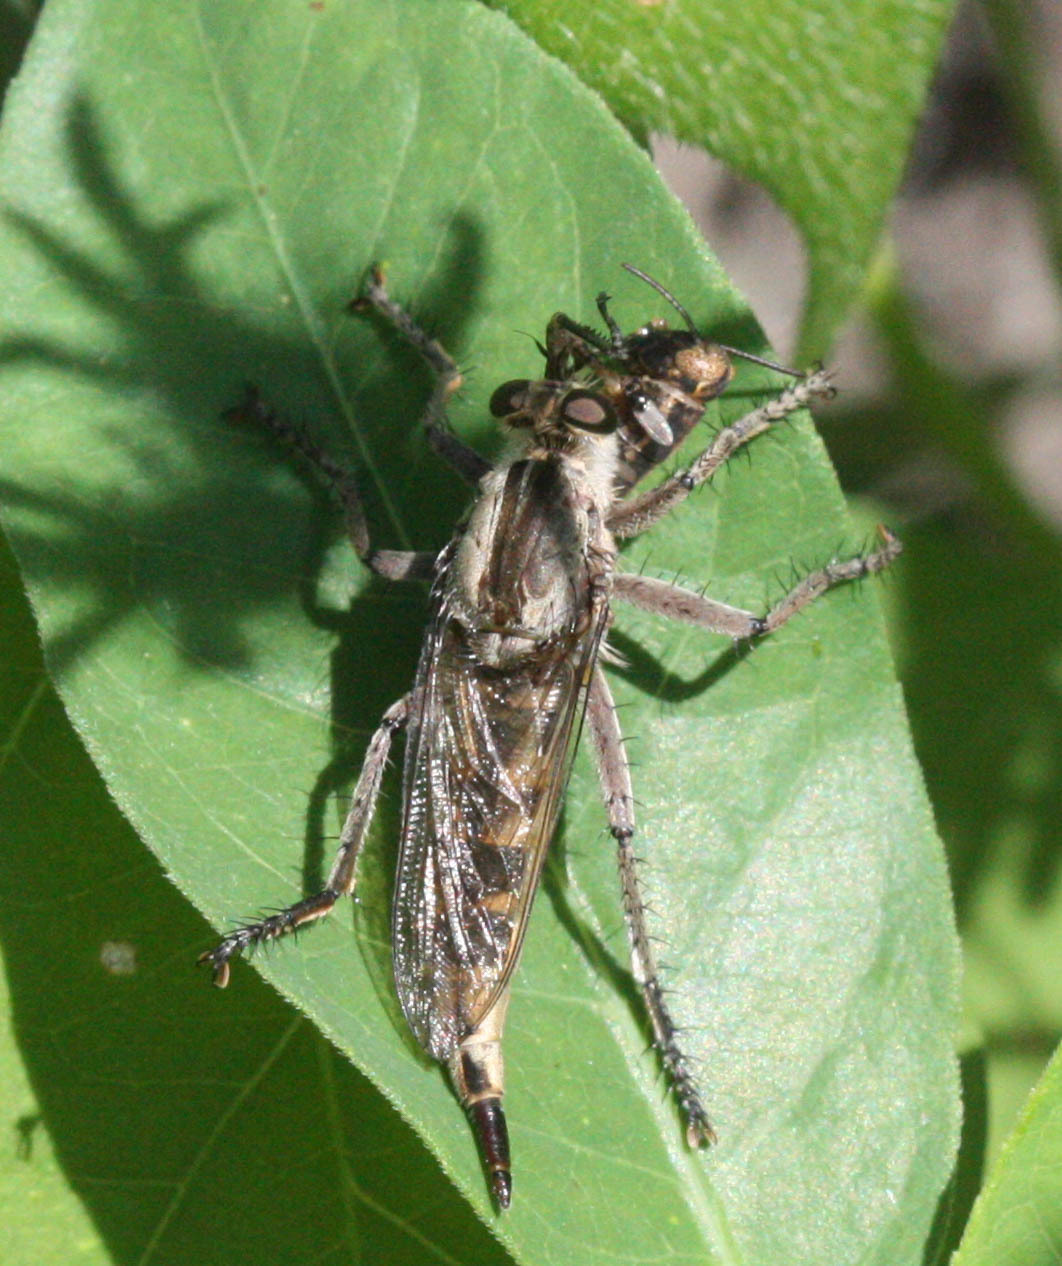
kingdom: Animalia
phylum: Arthropoda
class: Insecta
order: Diptera
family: Asilidae
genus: Triorla
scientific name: Triorla interrupta
